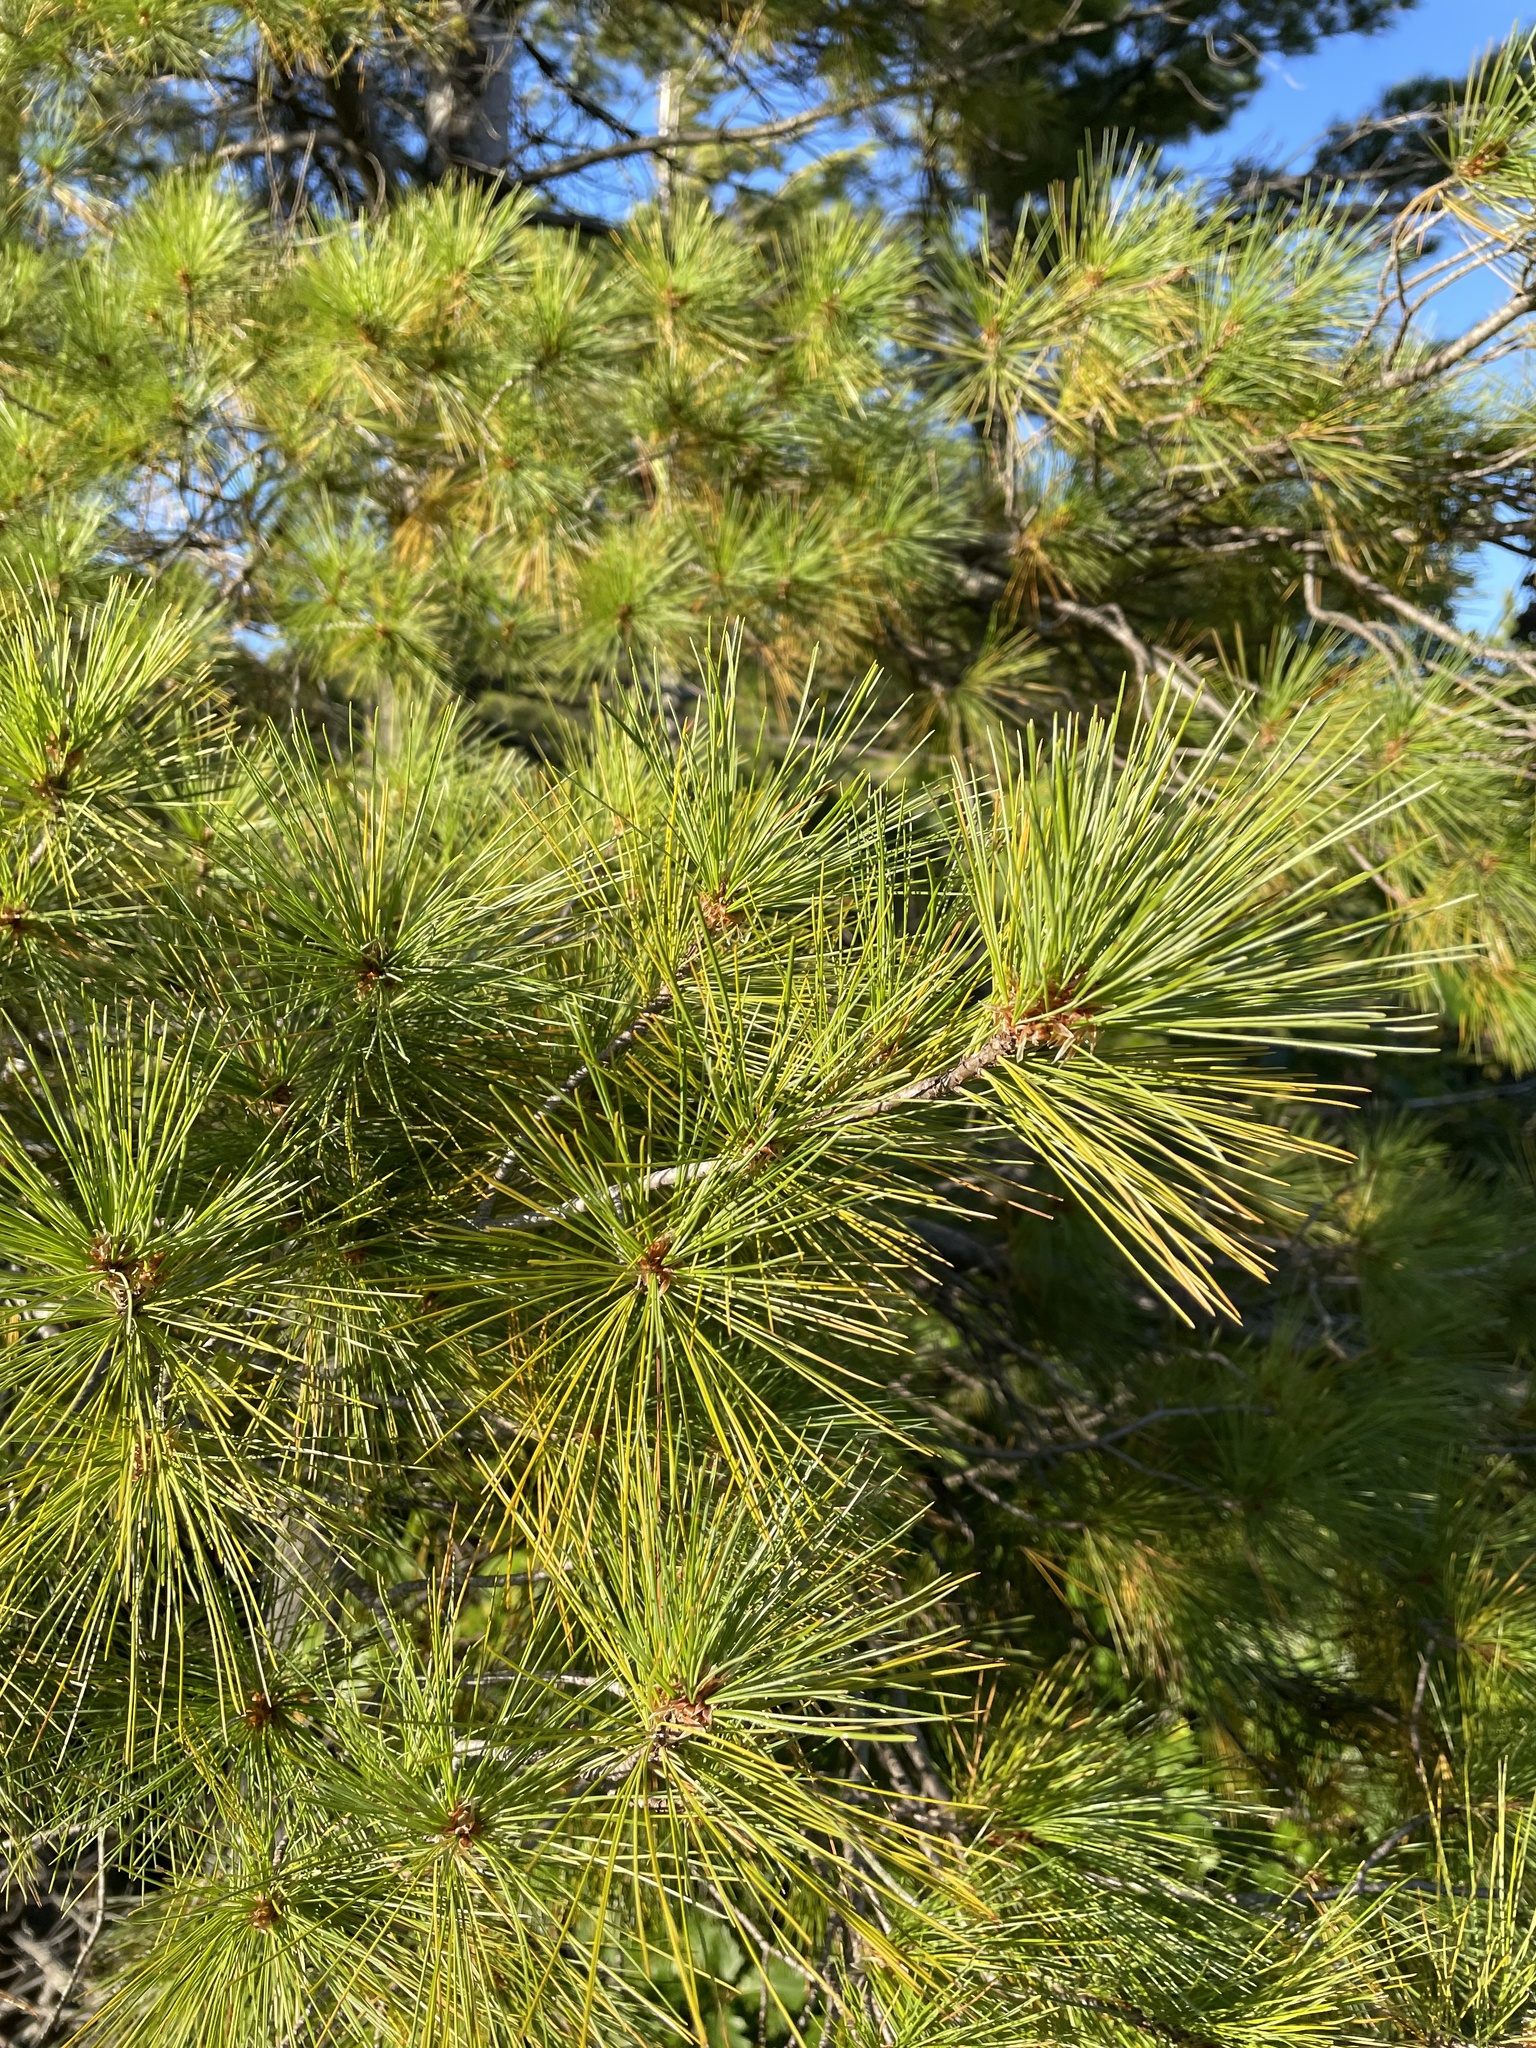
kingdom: Plantae
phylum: Tracheophyta
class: Pinopsida
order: Pinales
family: Pinaceae
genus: Pinus
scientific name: Pinus strobus
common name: Weymouth pine
